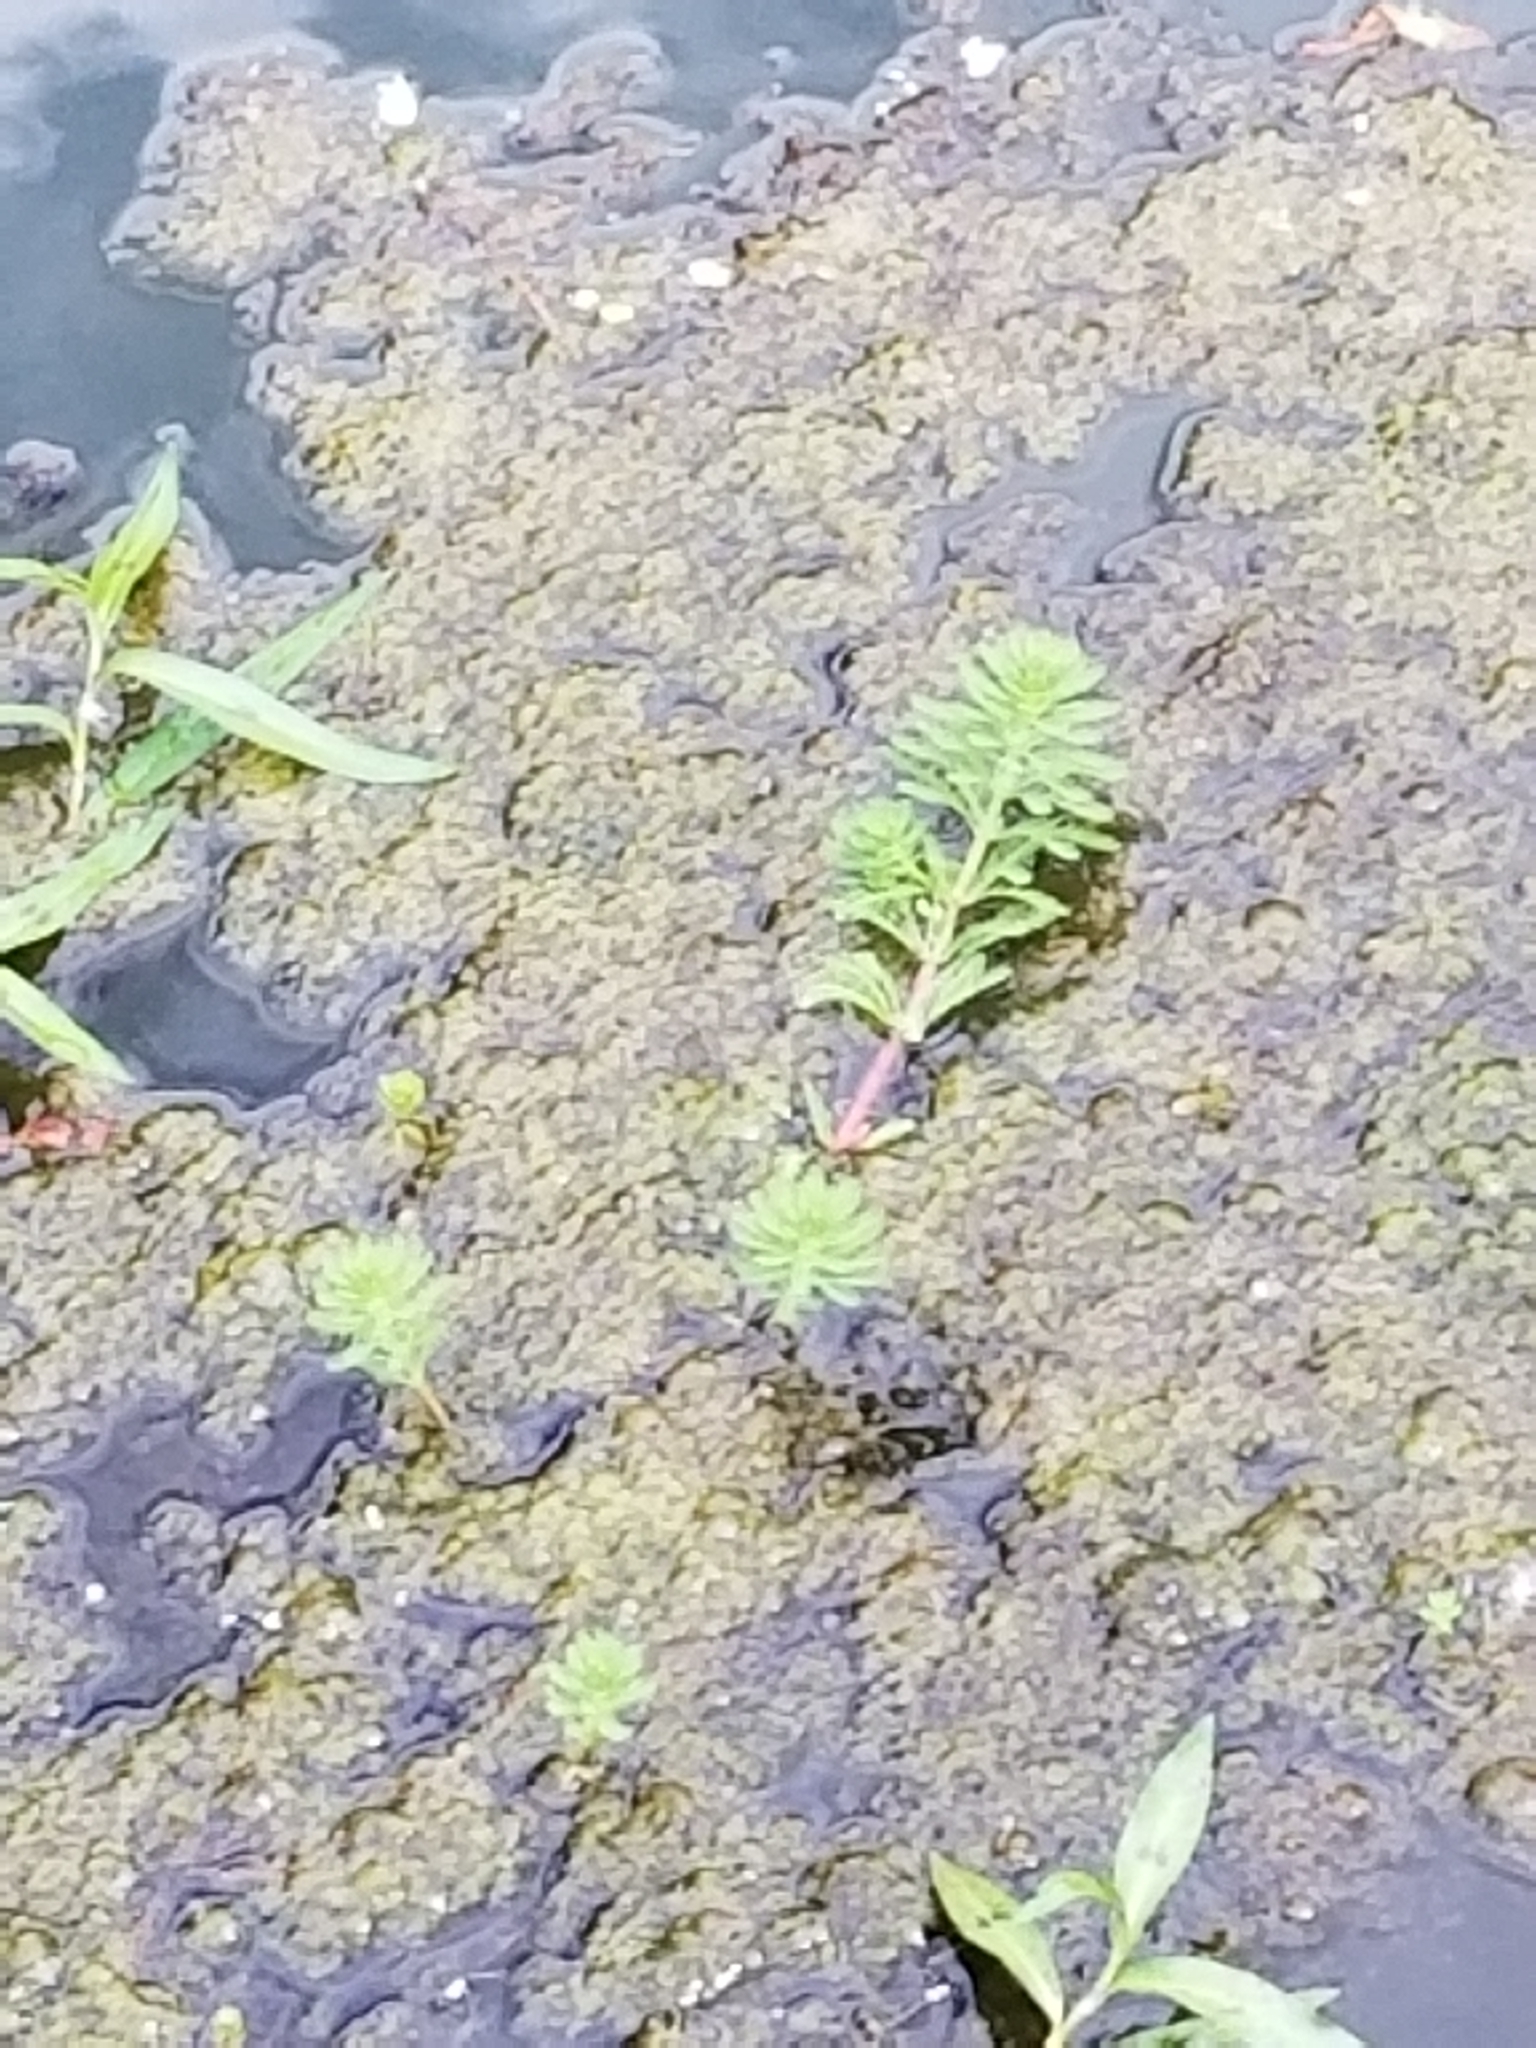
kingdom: Plantae
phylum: Tracheophyta
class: Magnoliopsida
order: Saxifragales
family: Haloragaceae
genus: Myriophyllum
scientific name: Myriophyllum aquaticum
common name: Parrot's feather
